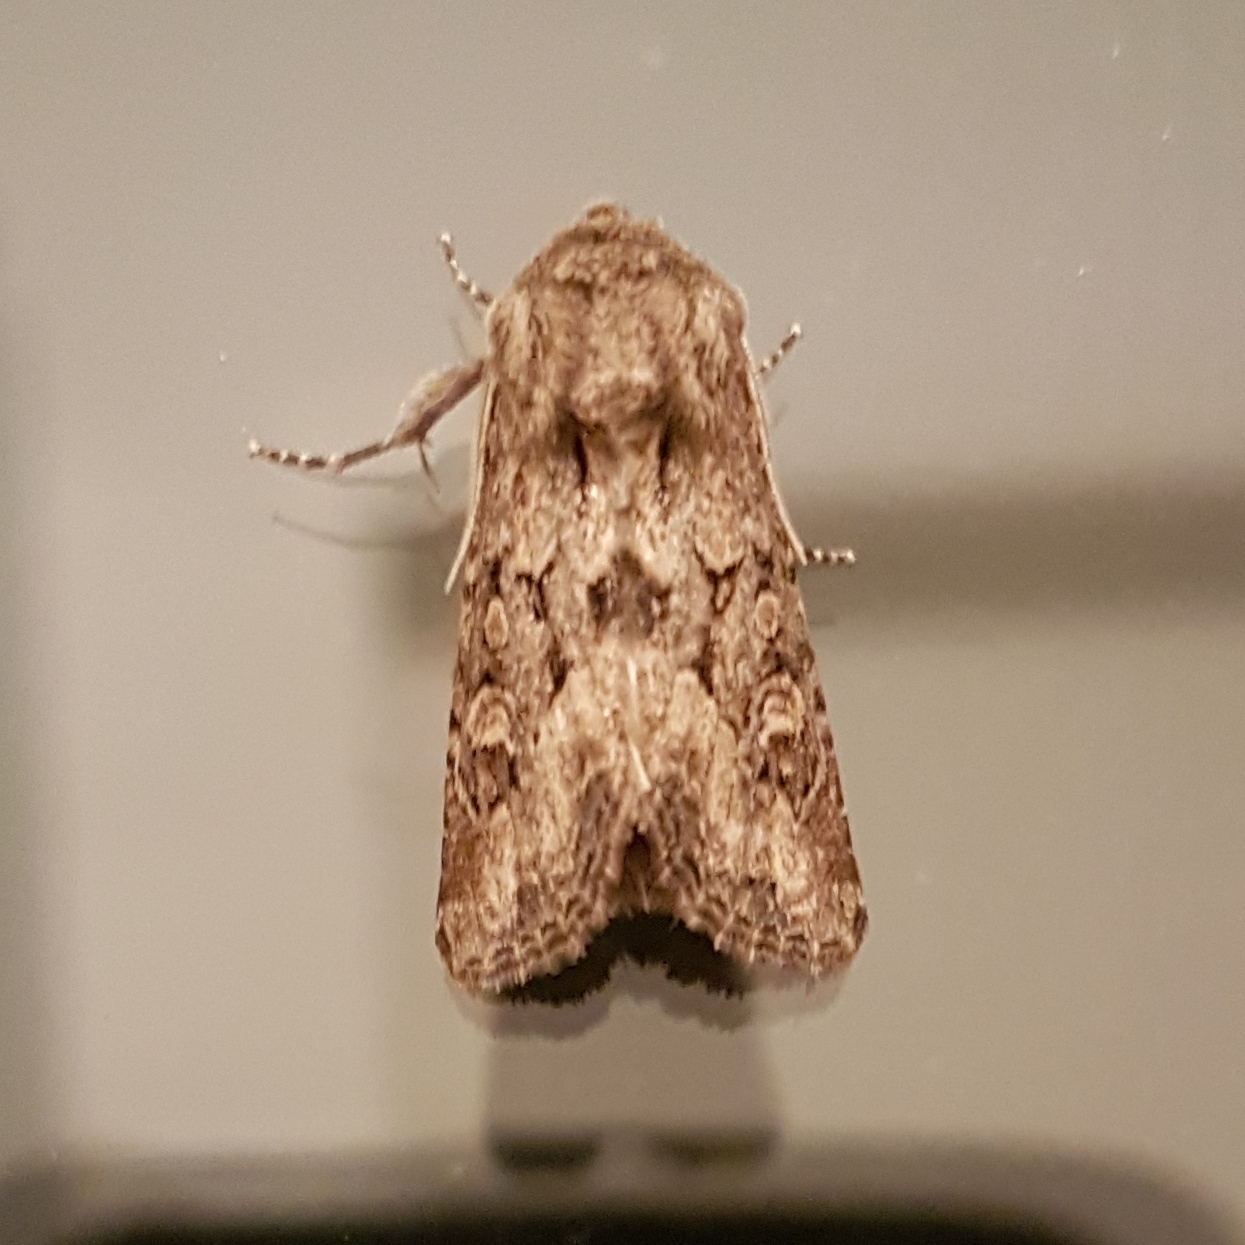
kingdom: Animalia
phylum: Arthropoda
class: Insecta
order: Lepidoptera
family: Noctuidae
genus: Luperina
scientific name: Luperina testacea
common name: Flounced rustic
